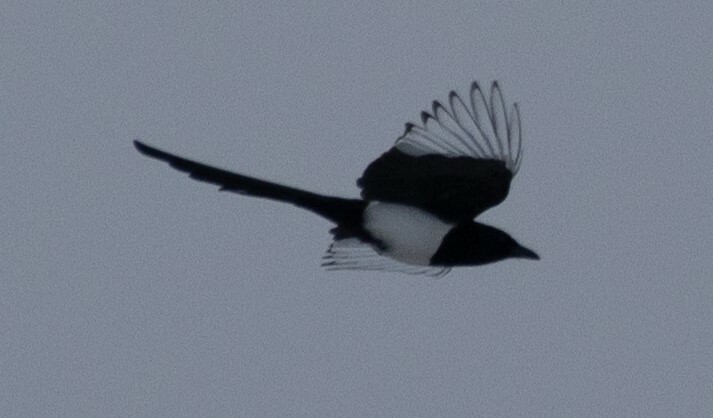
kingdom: Animalia
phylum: Chordata
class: Aves
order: Passeriformes
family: Corvidae
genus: Pica
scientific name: Pica pica
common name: Eurasian magpie
